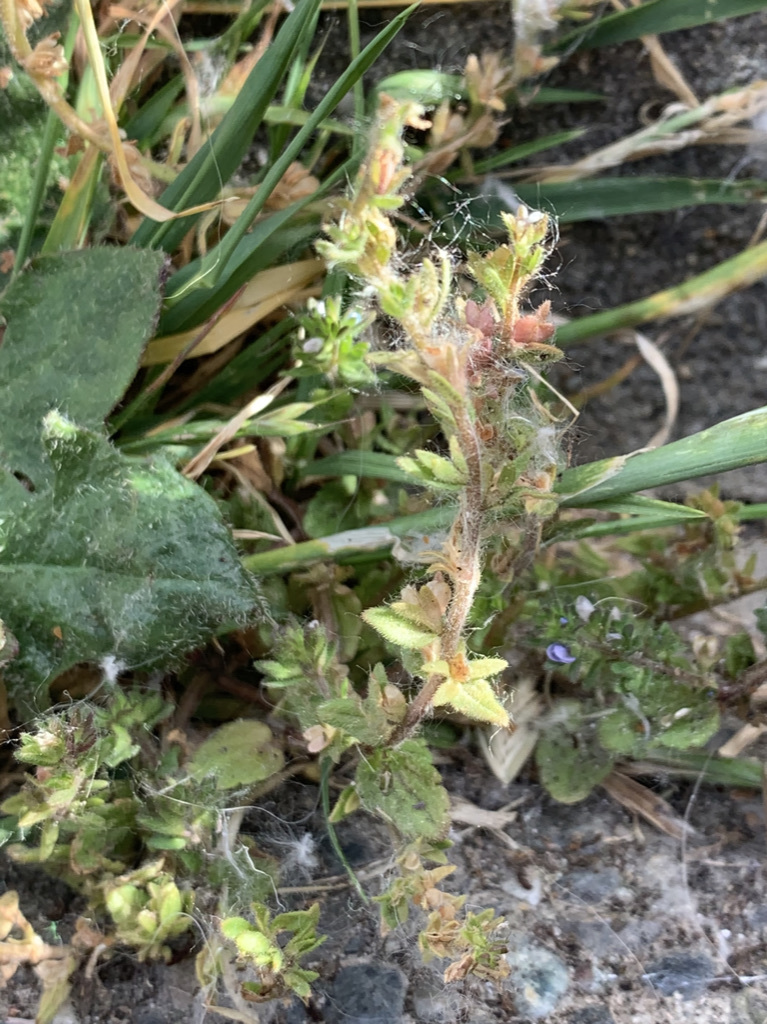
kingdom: Plantae
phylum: Tracheophyta
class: Magnoliopsida
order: Lamiales
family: Plantaginaceae
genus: Veronica
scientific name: Veronica arvensis
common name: Corn speedwell
